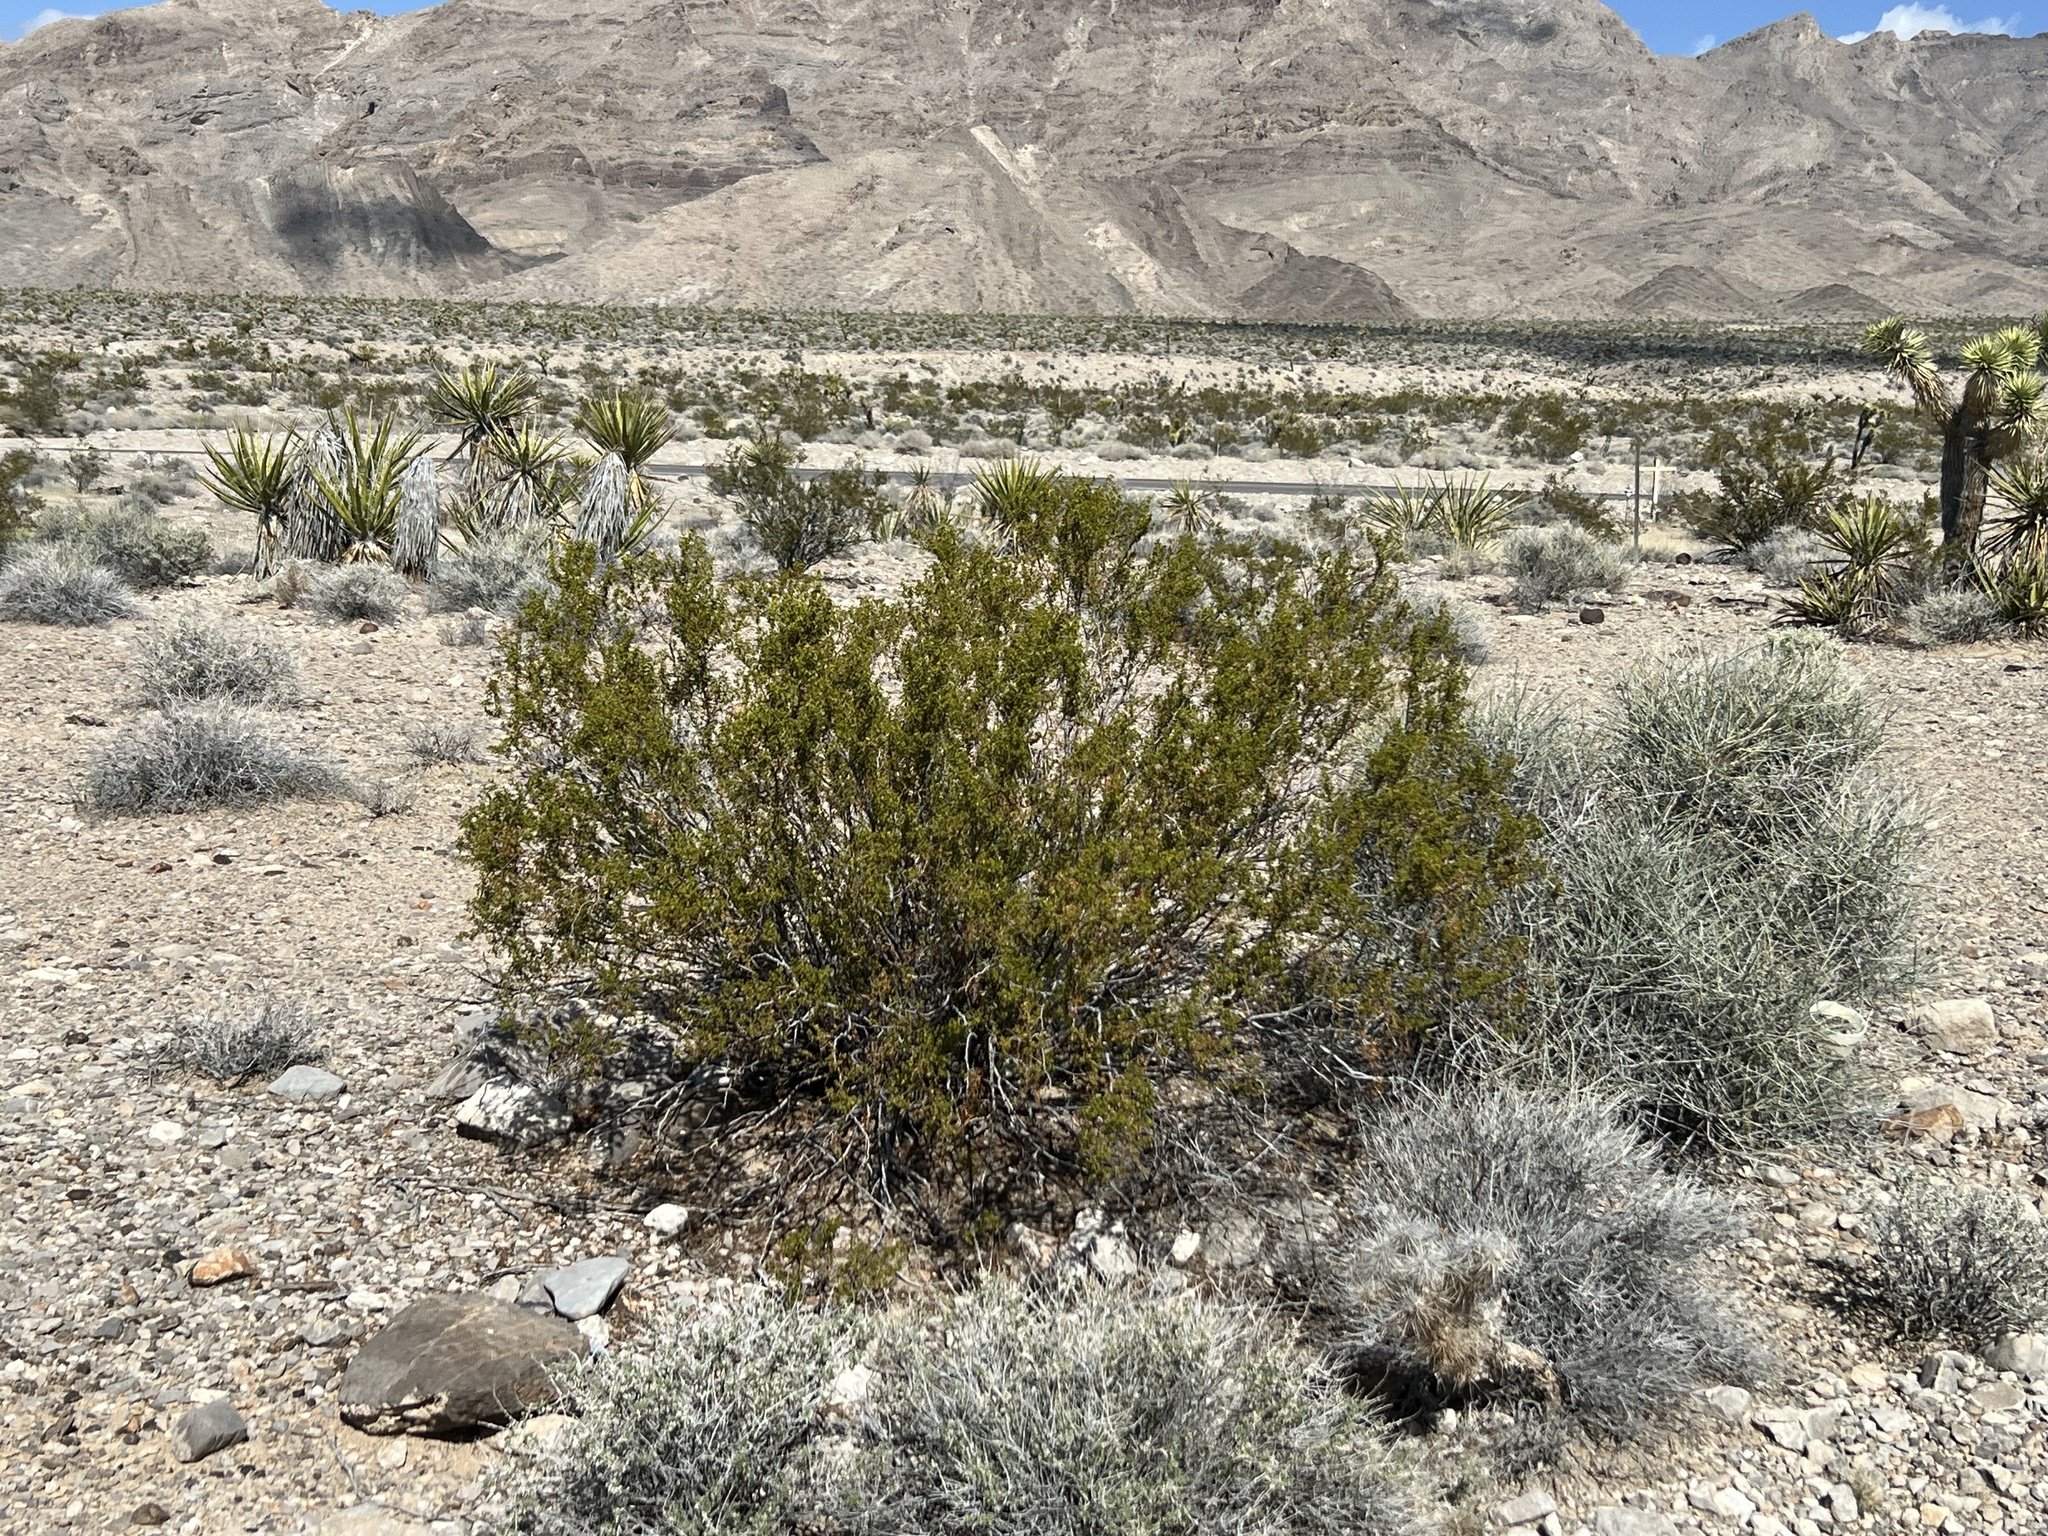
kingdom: Plantae
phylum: Tracheophyta
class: Magnoliopsida
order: Zygophyllales
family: Zygophyllaceae
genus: Larrea
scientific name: Larrea tridentata
